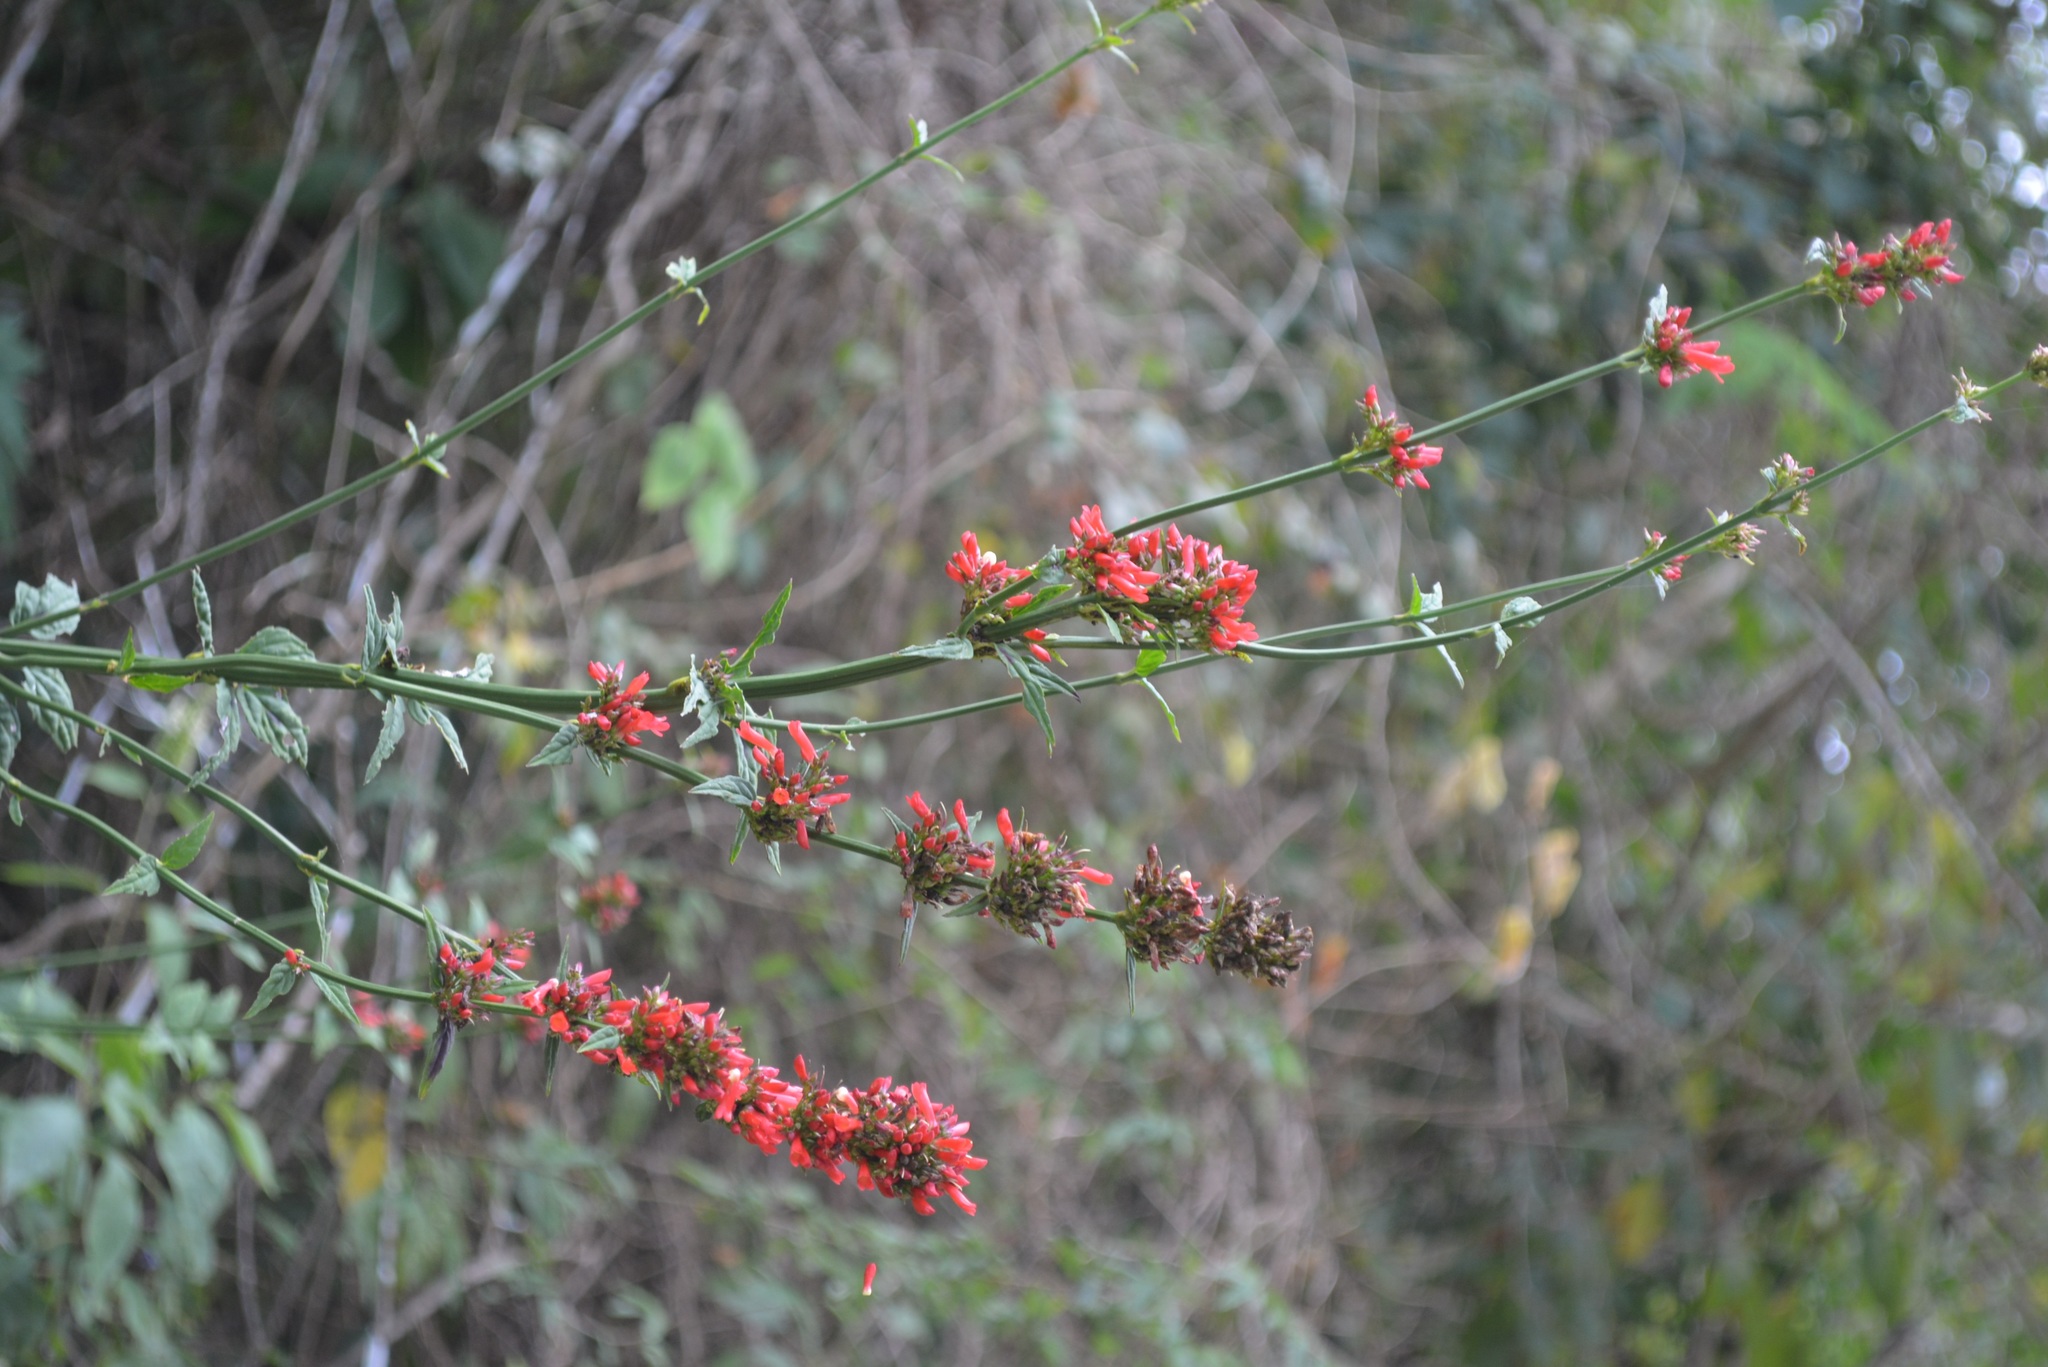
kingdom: Plantae
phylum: Tracheophyta
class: Magnoliopsida
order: Lamiales
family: Plantaginaceae
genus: Russelia
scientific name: Russelia verticillata
